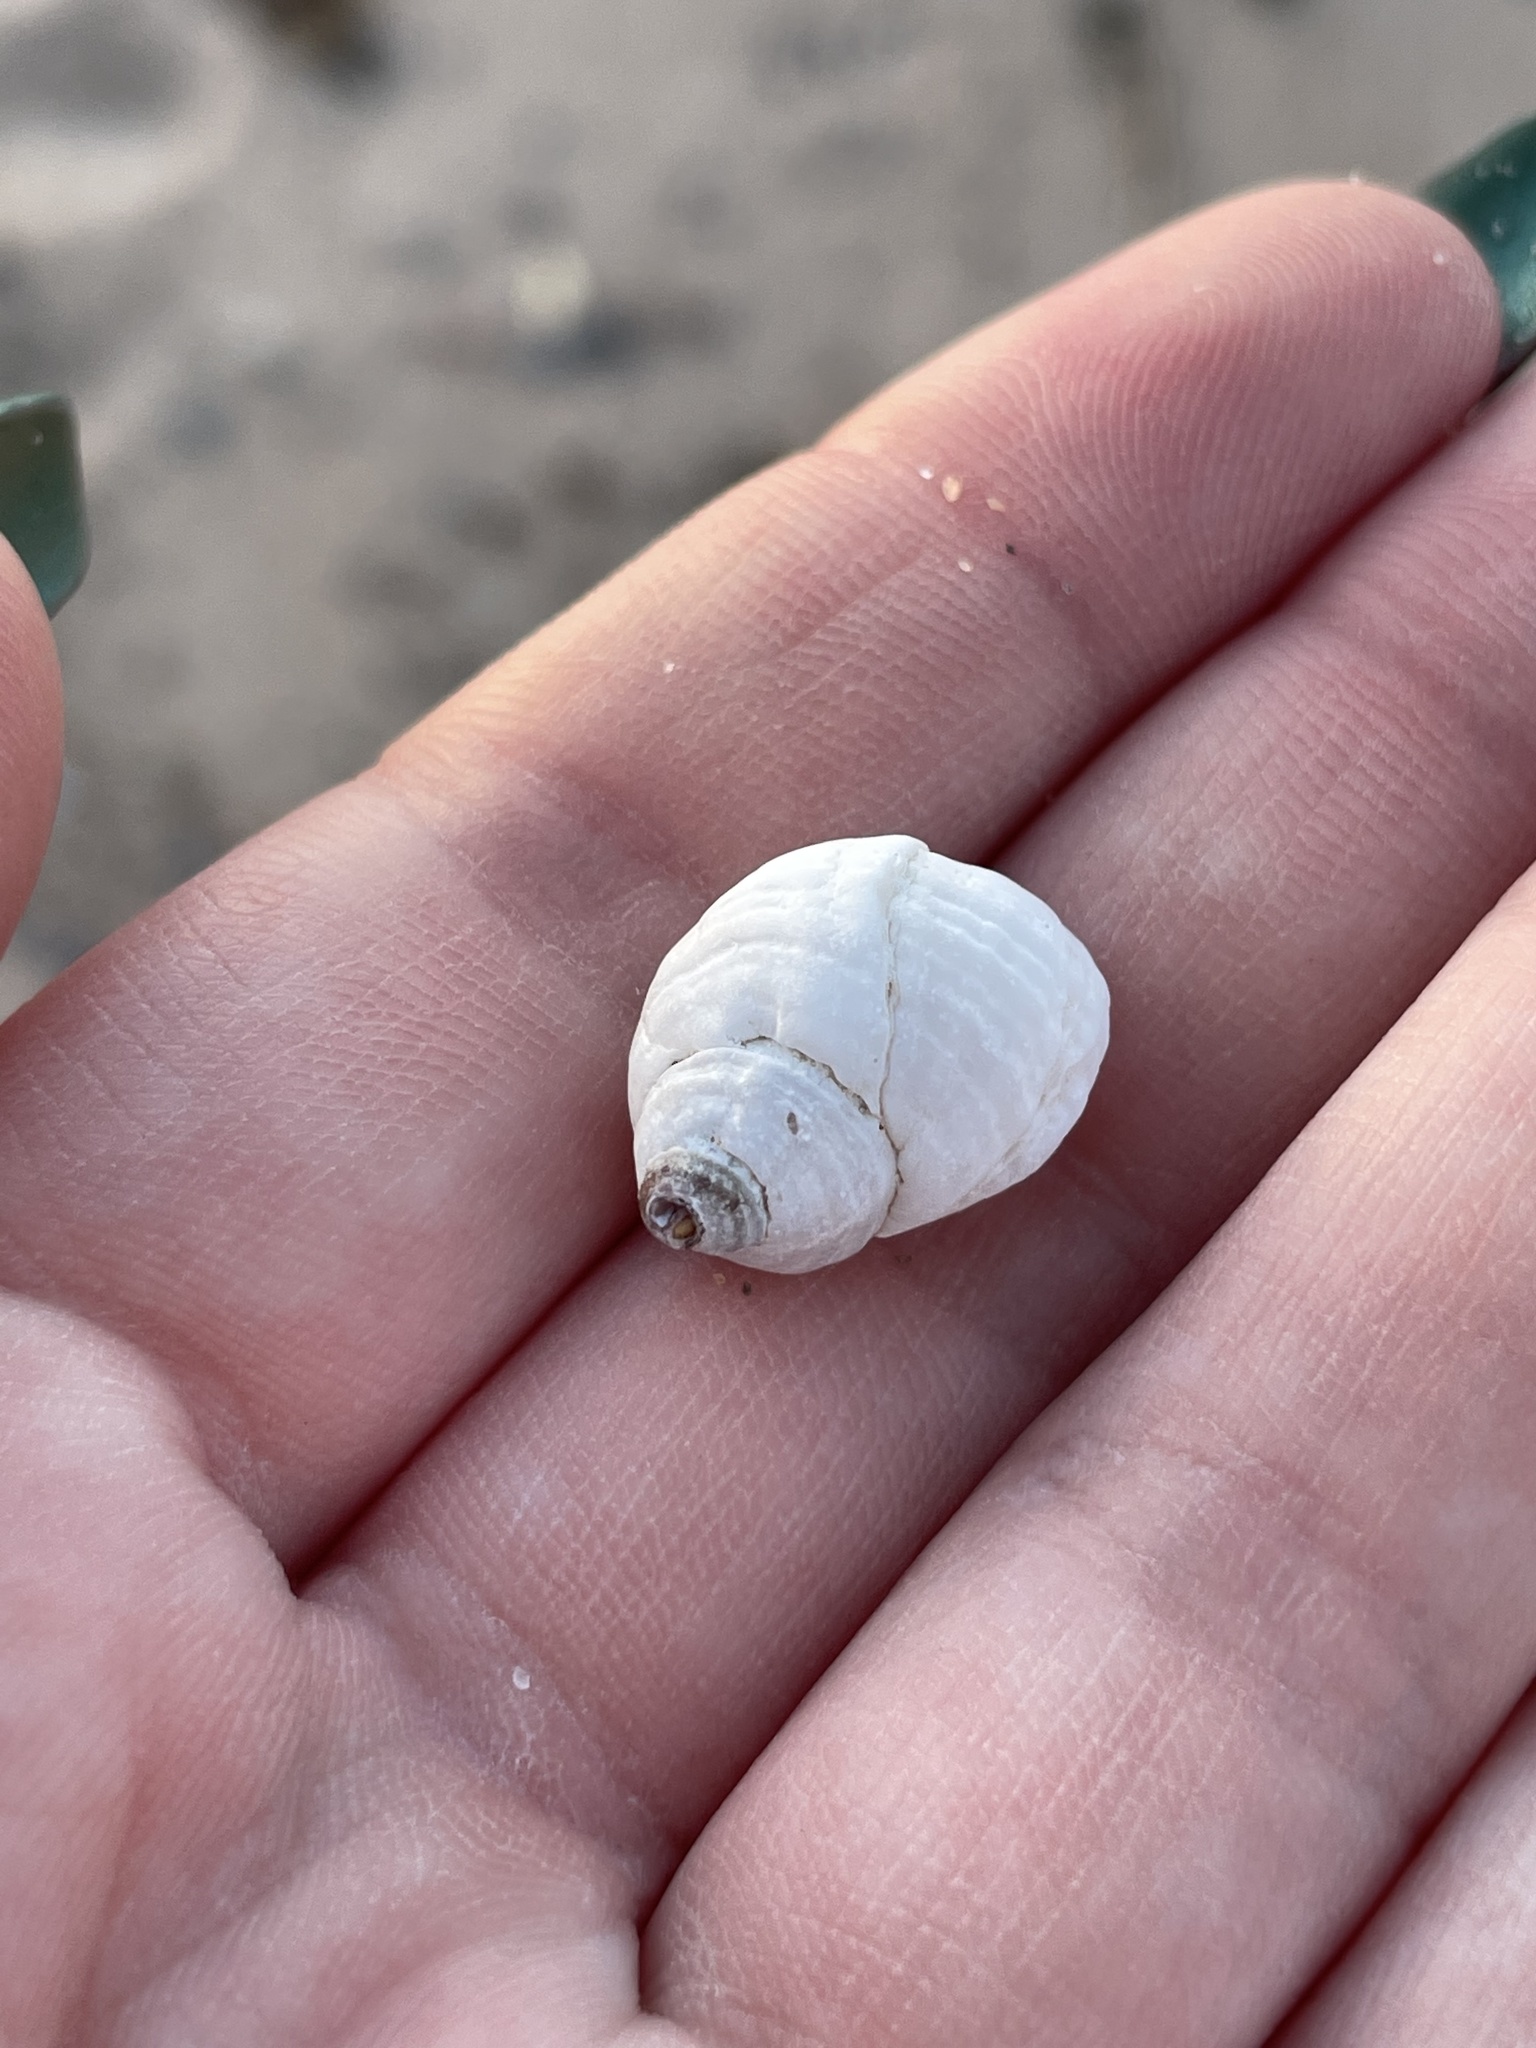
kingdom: Animalia
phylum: Mollusca
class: Gastropoda
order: Neogastropoda
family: Muricidae
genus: Nucella
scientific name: Nucella lapillus
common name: Dog whelk
